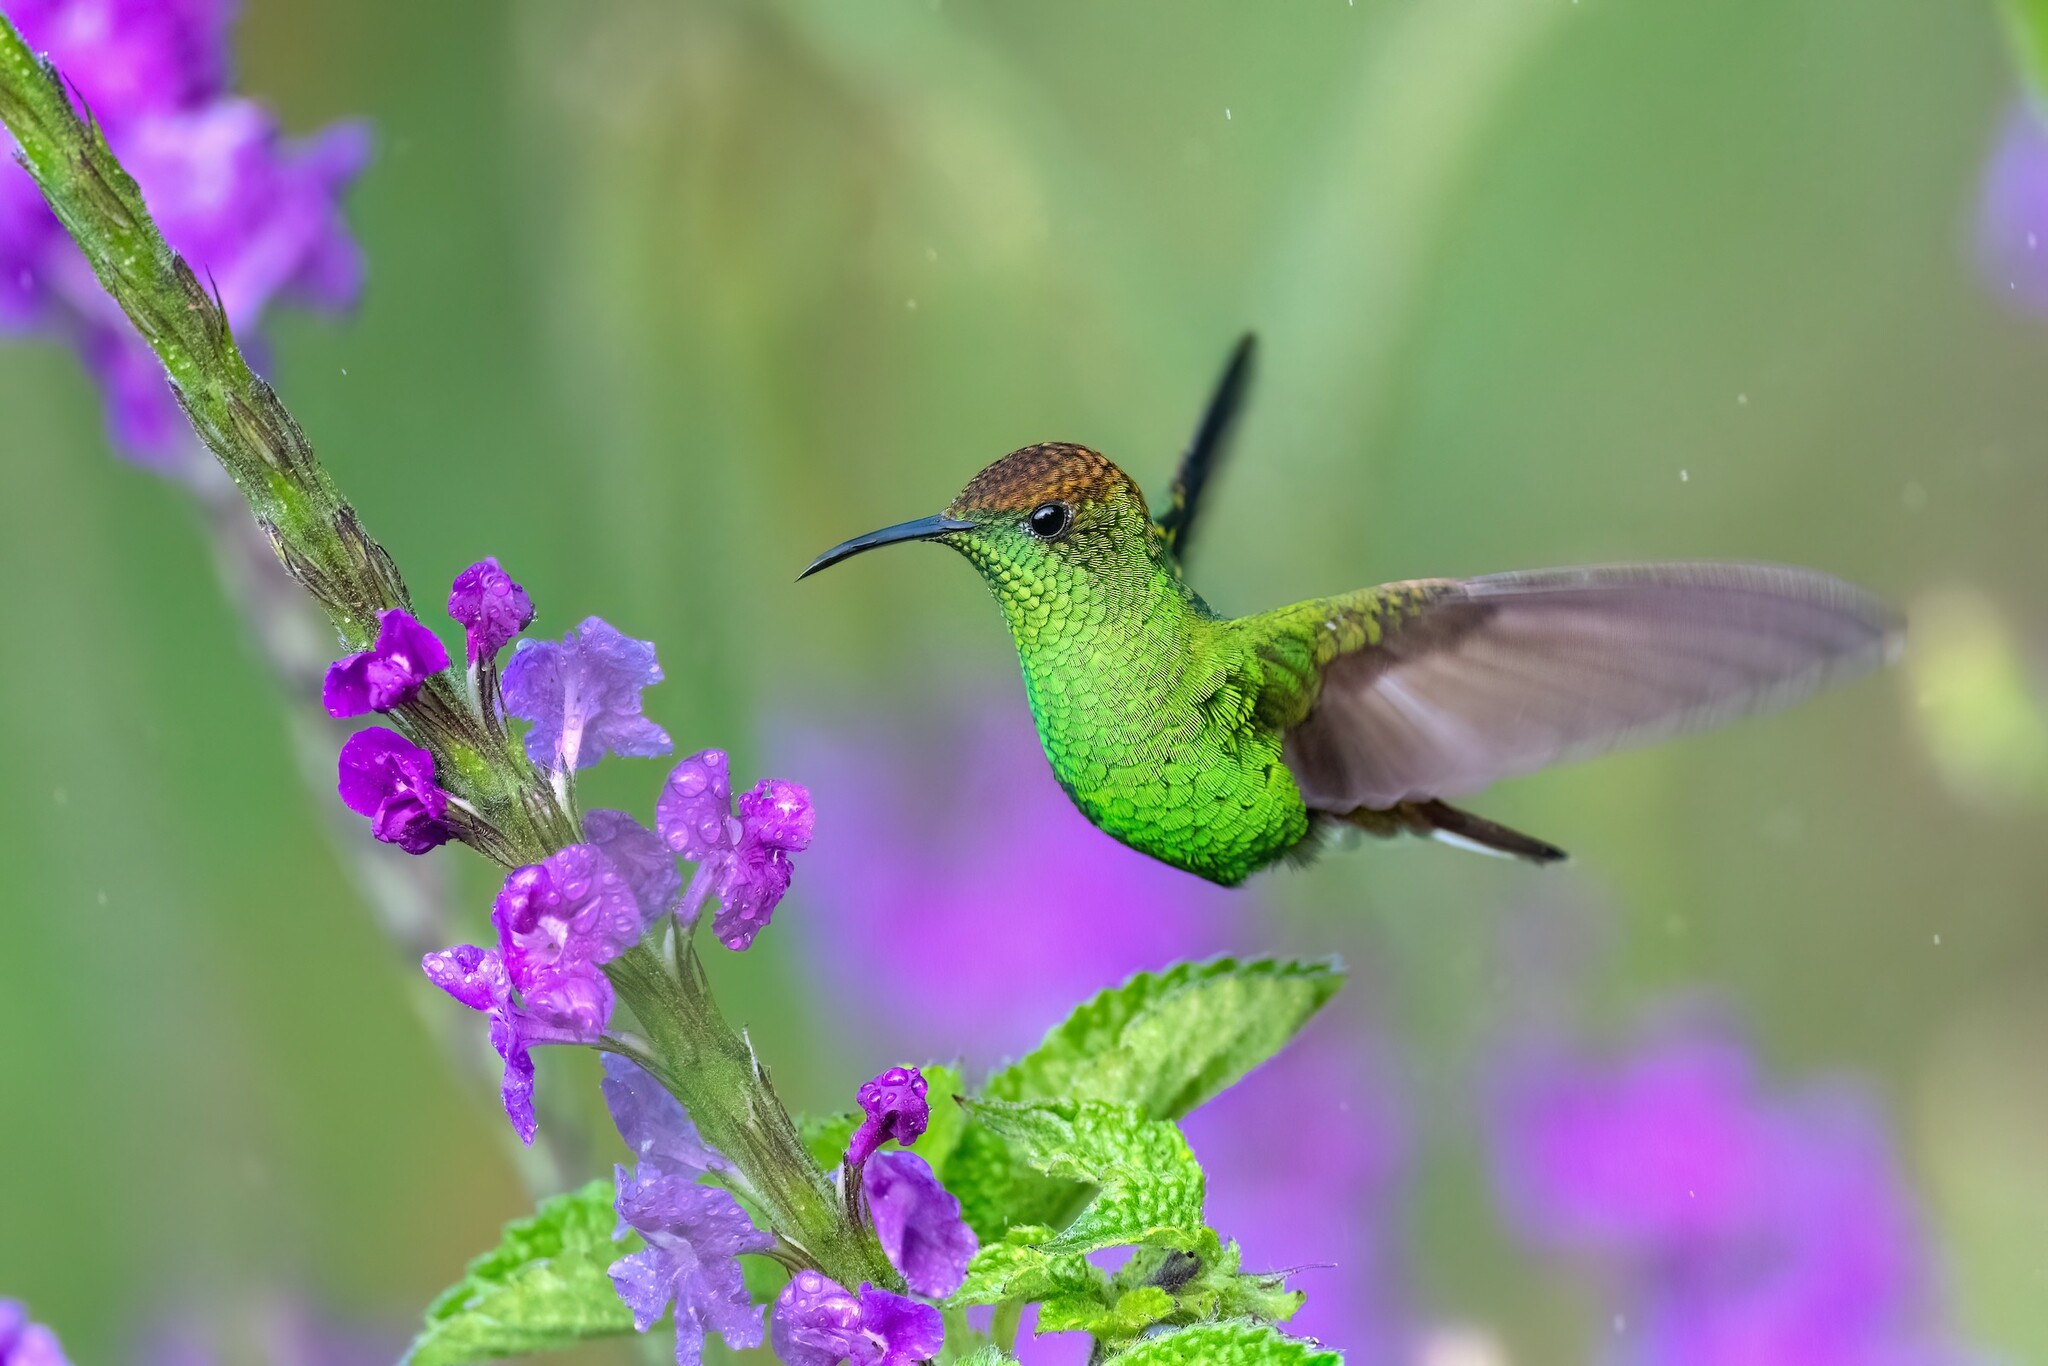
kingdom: Animalia
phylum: Chordata
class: Aves
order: Apodiformes
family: Trochilidae
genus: Microchera
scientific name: Microchera cupreiceps
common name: Coppery-headed emerald
